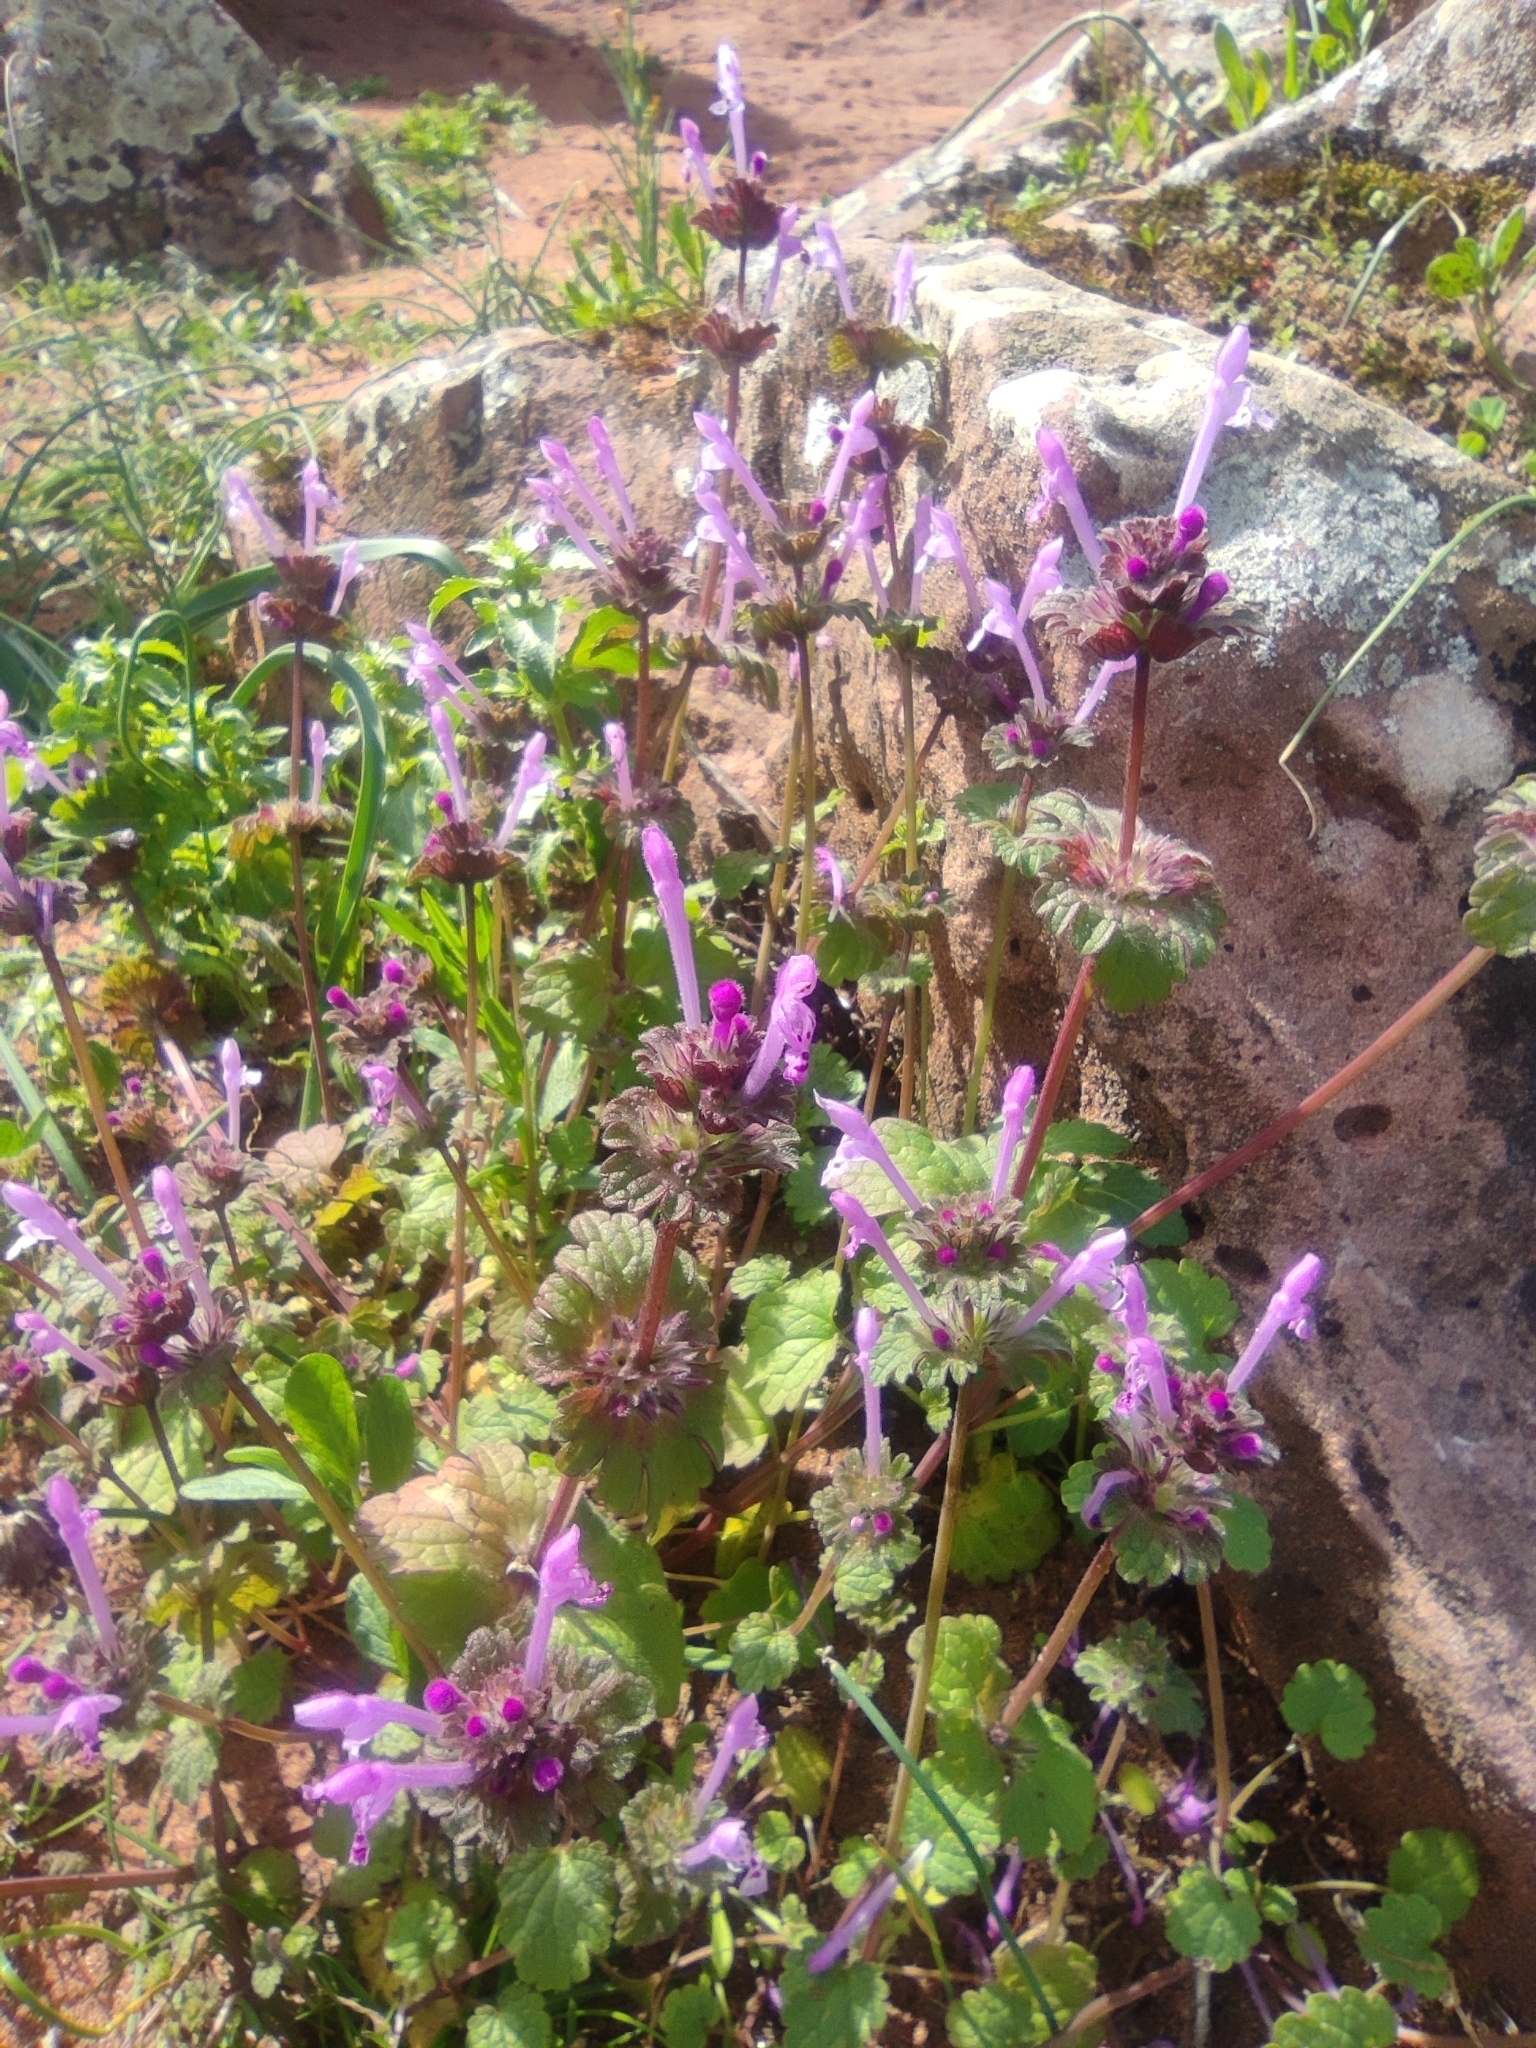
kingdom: Plantae
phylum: Tracheophyta
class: Magnoliopsida
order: Lamiales
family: Lamiaceae
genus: Lamium
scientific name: Lamium amplexicaule
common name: Henbit dead-nettle
